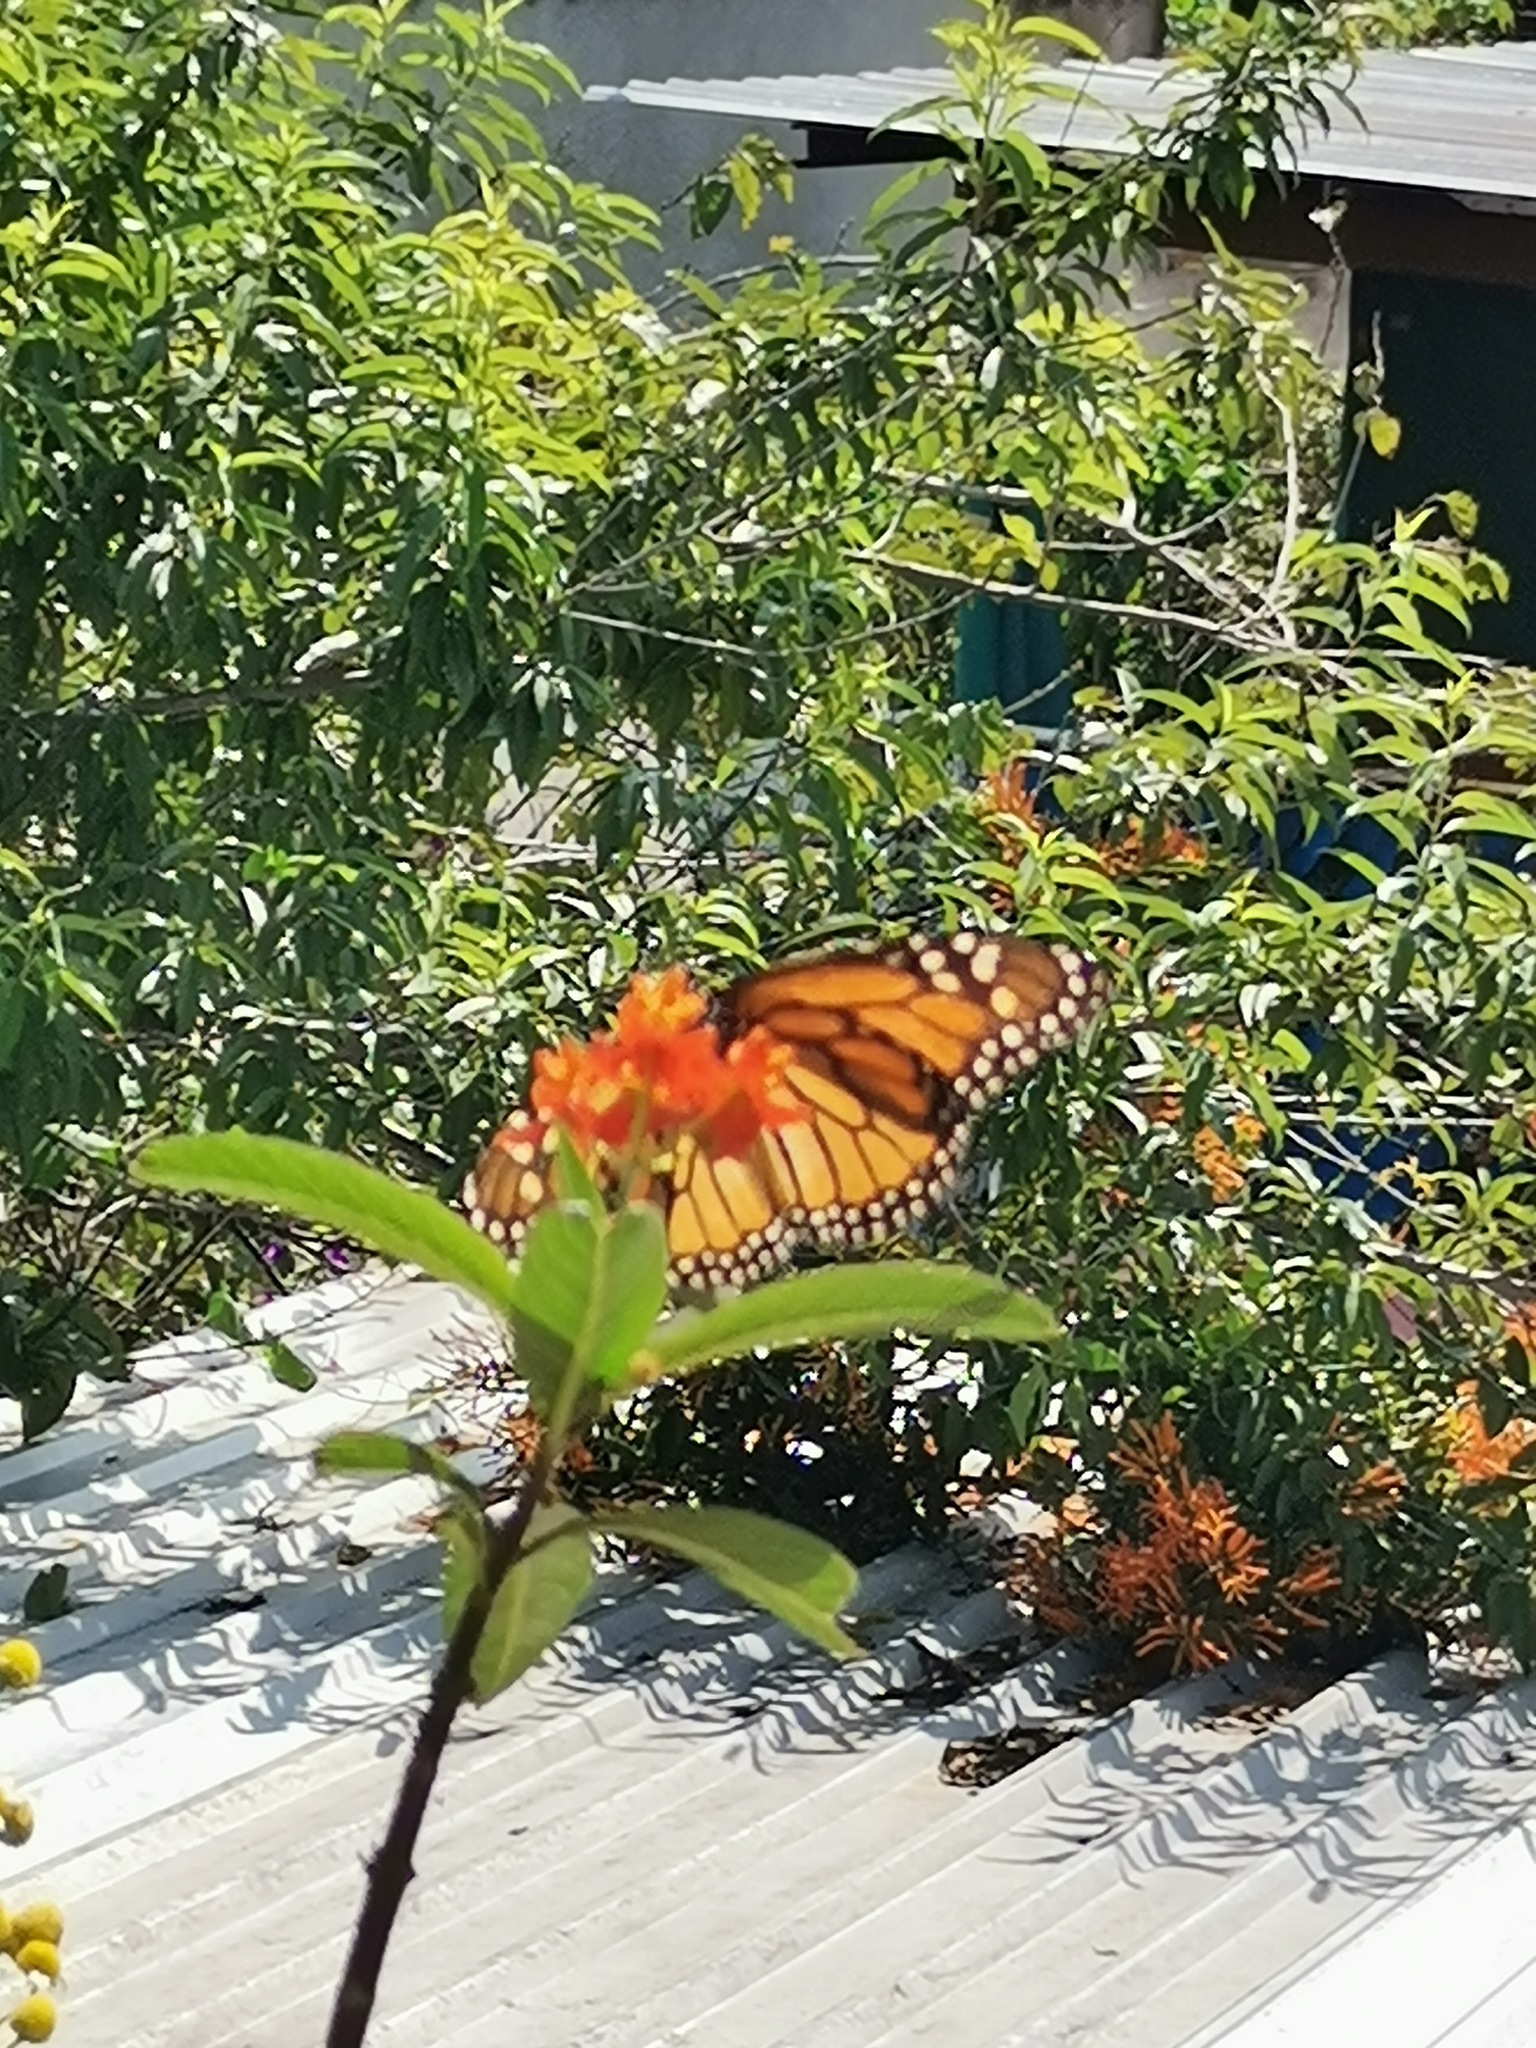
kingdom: Animalia
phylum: Arthropoda
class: Insecta
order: Lepidoptera
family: Nymphalidae
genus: Danaus
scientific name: Danaus plexippus
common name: Monarch
